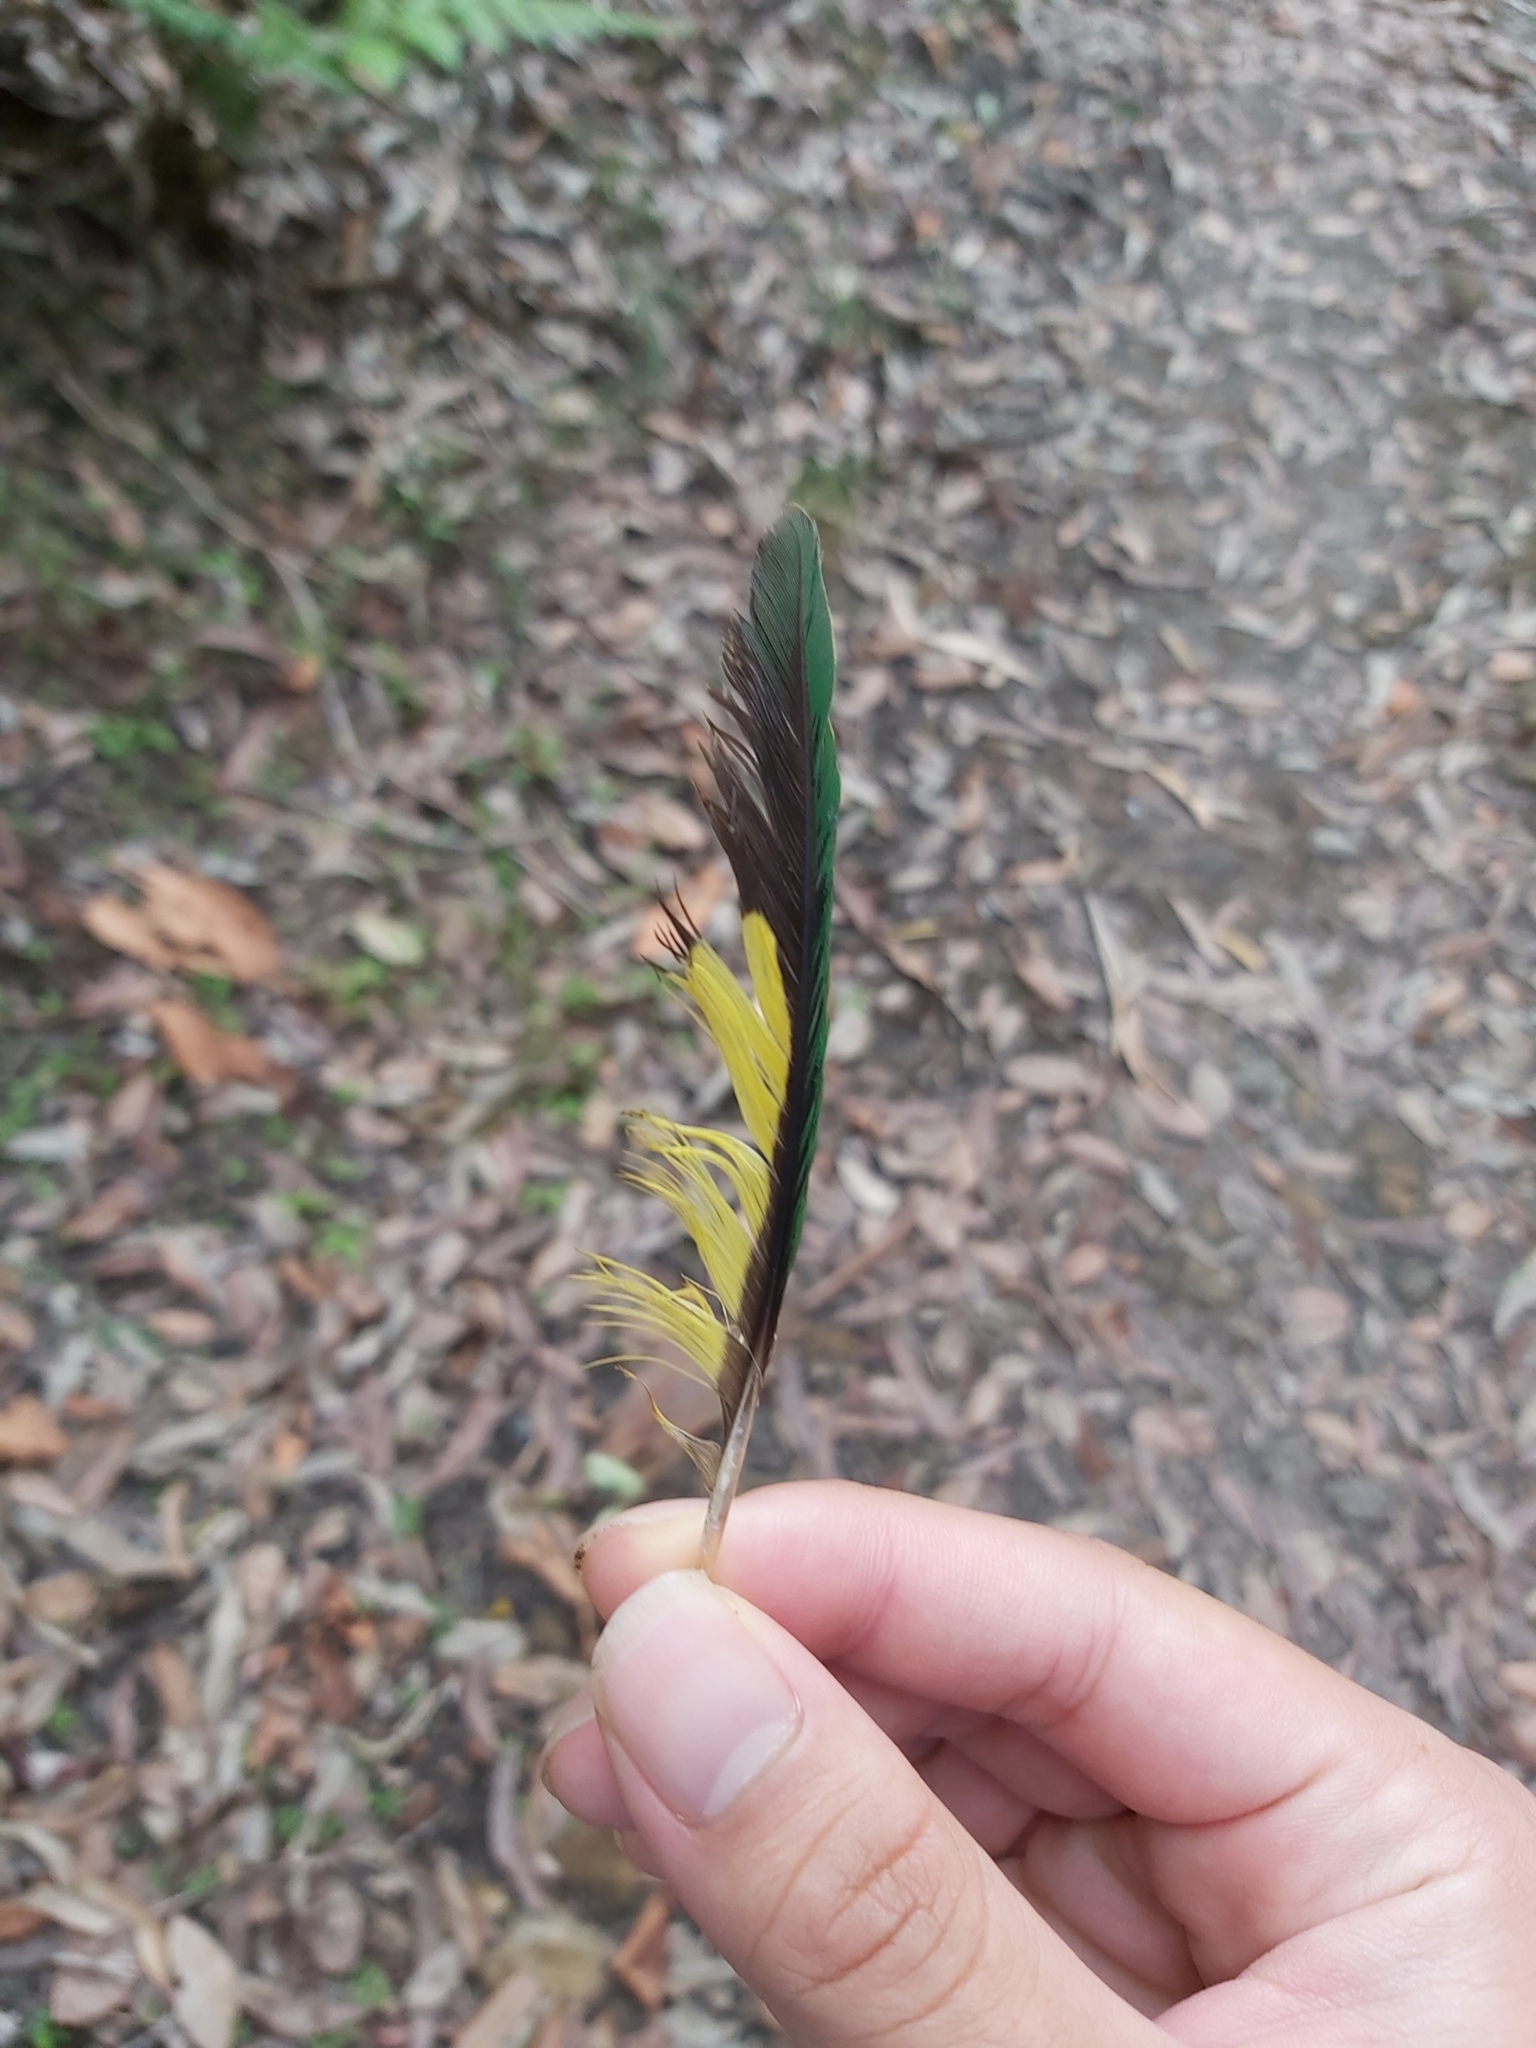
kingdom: Animalia
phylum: Chordata
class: Aves
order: Psittaciformes
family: Psittacidae
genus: Trichoglossus
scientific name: Trichoglossus haematodus
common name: Coconut lorikeet
